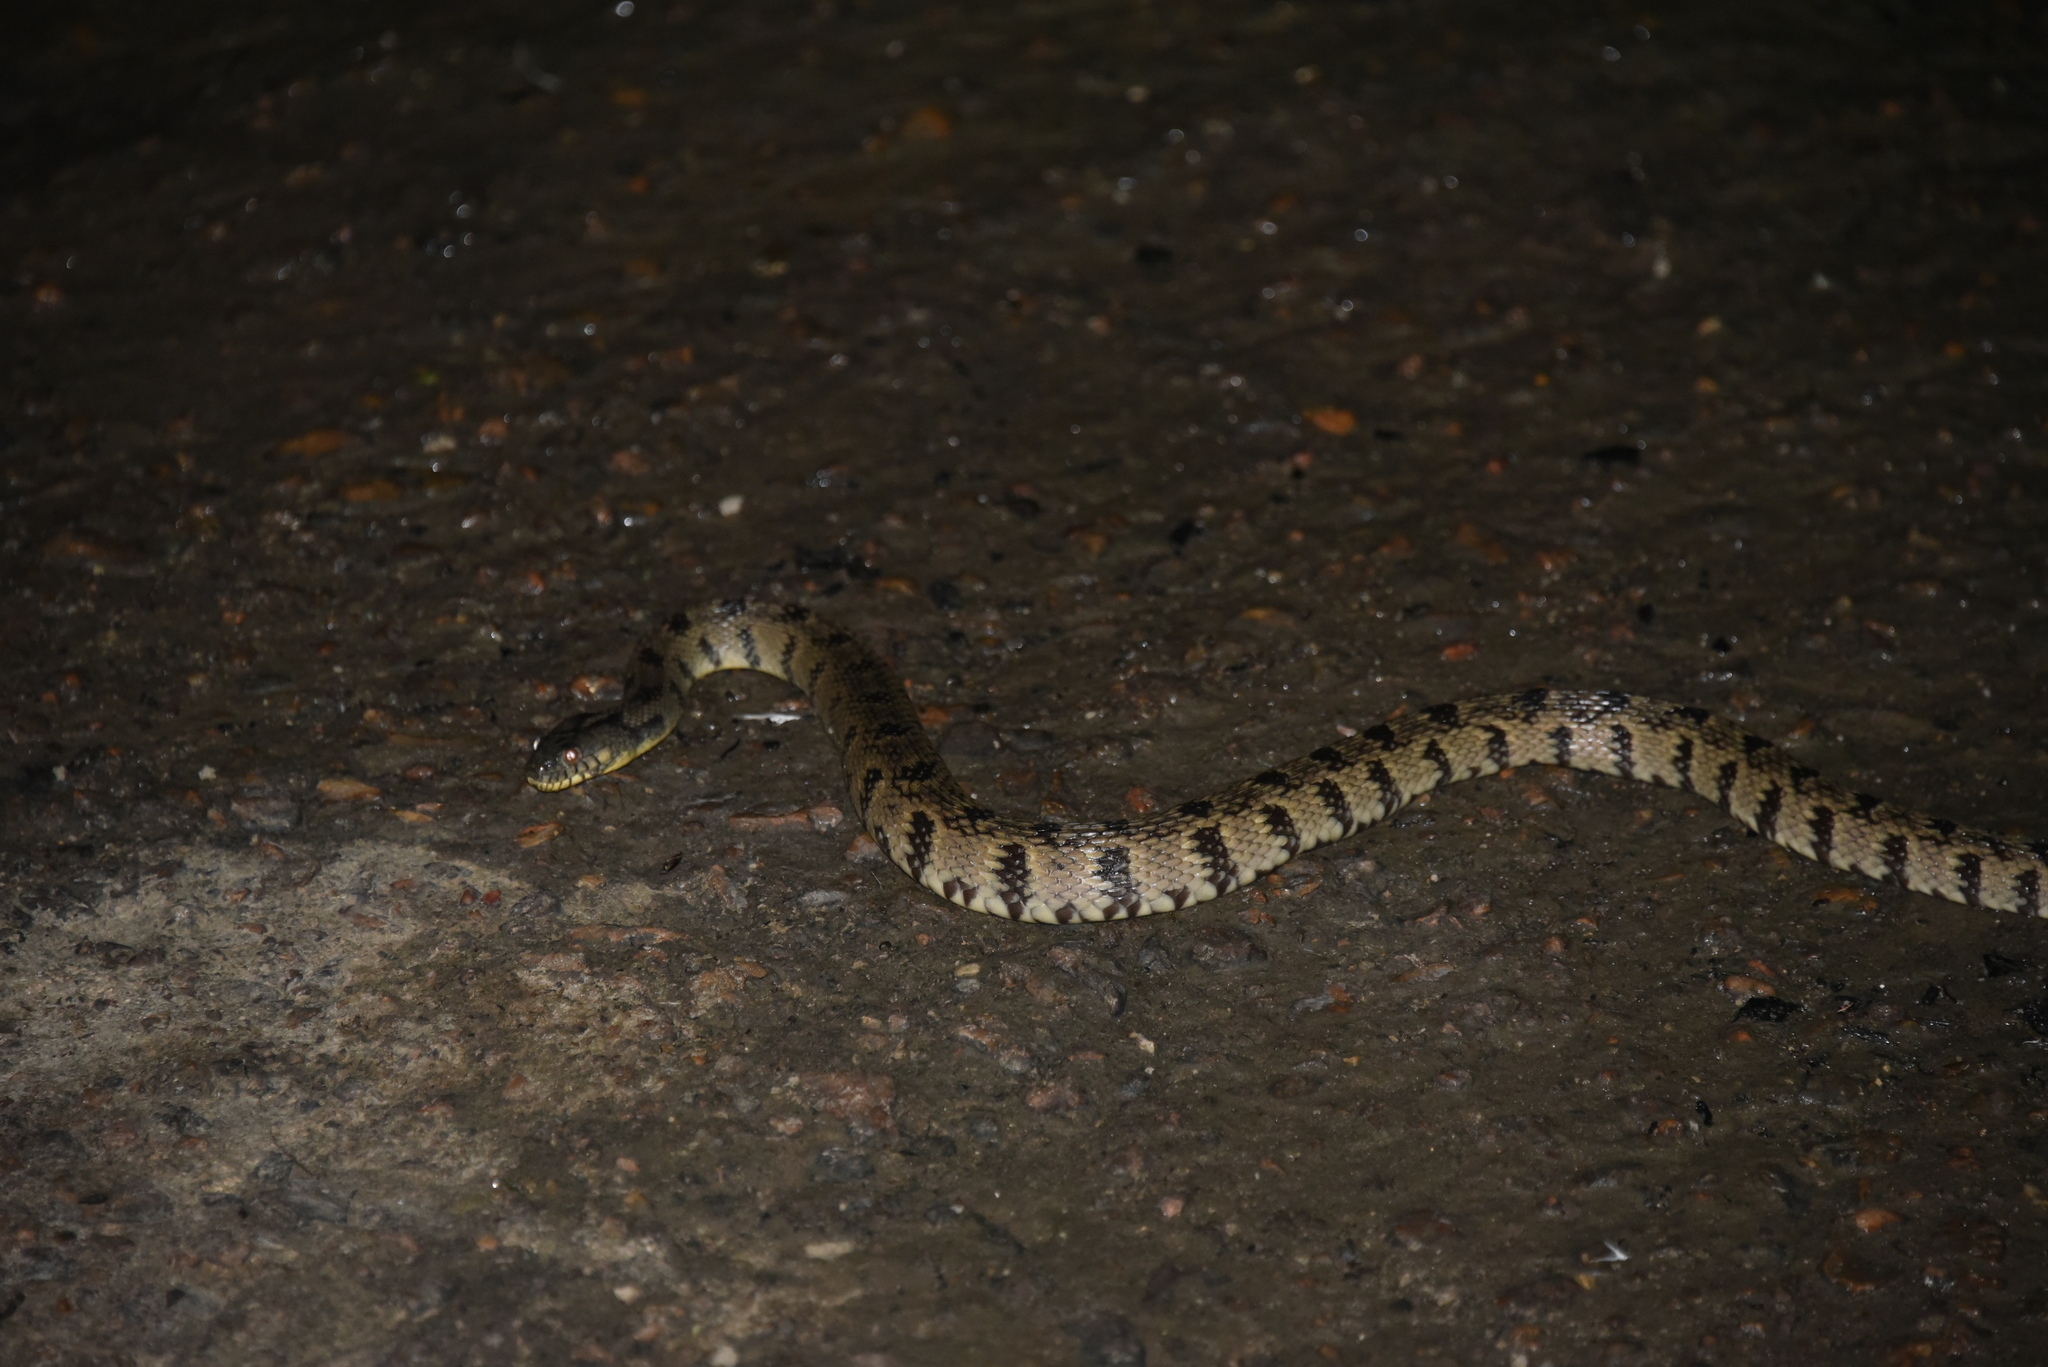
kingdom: Animalia
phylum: Chordata
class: Squamata
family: Colubridae
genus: Nerodia
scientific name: Nerodia rhombifer
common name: Diamondback water snake
